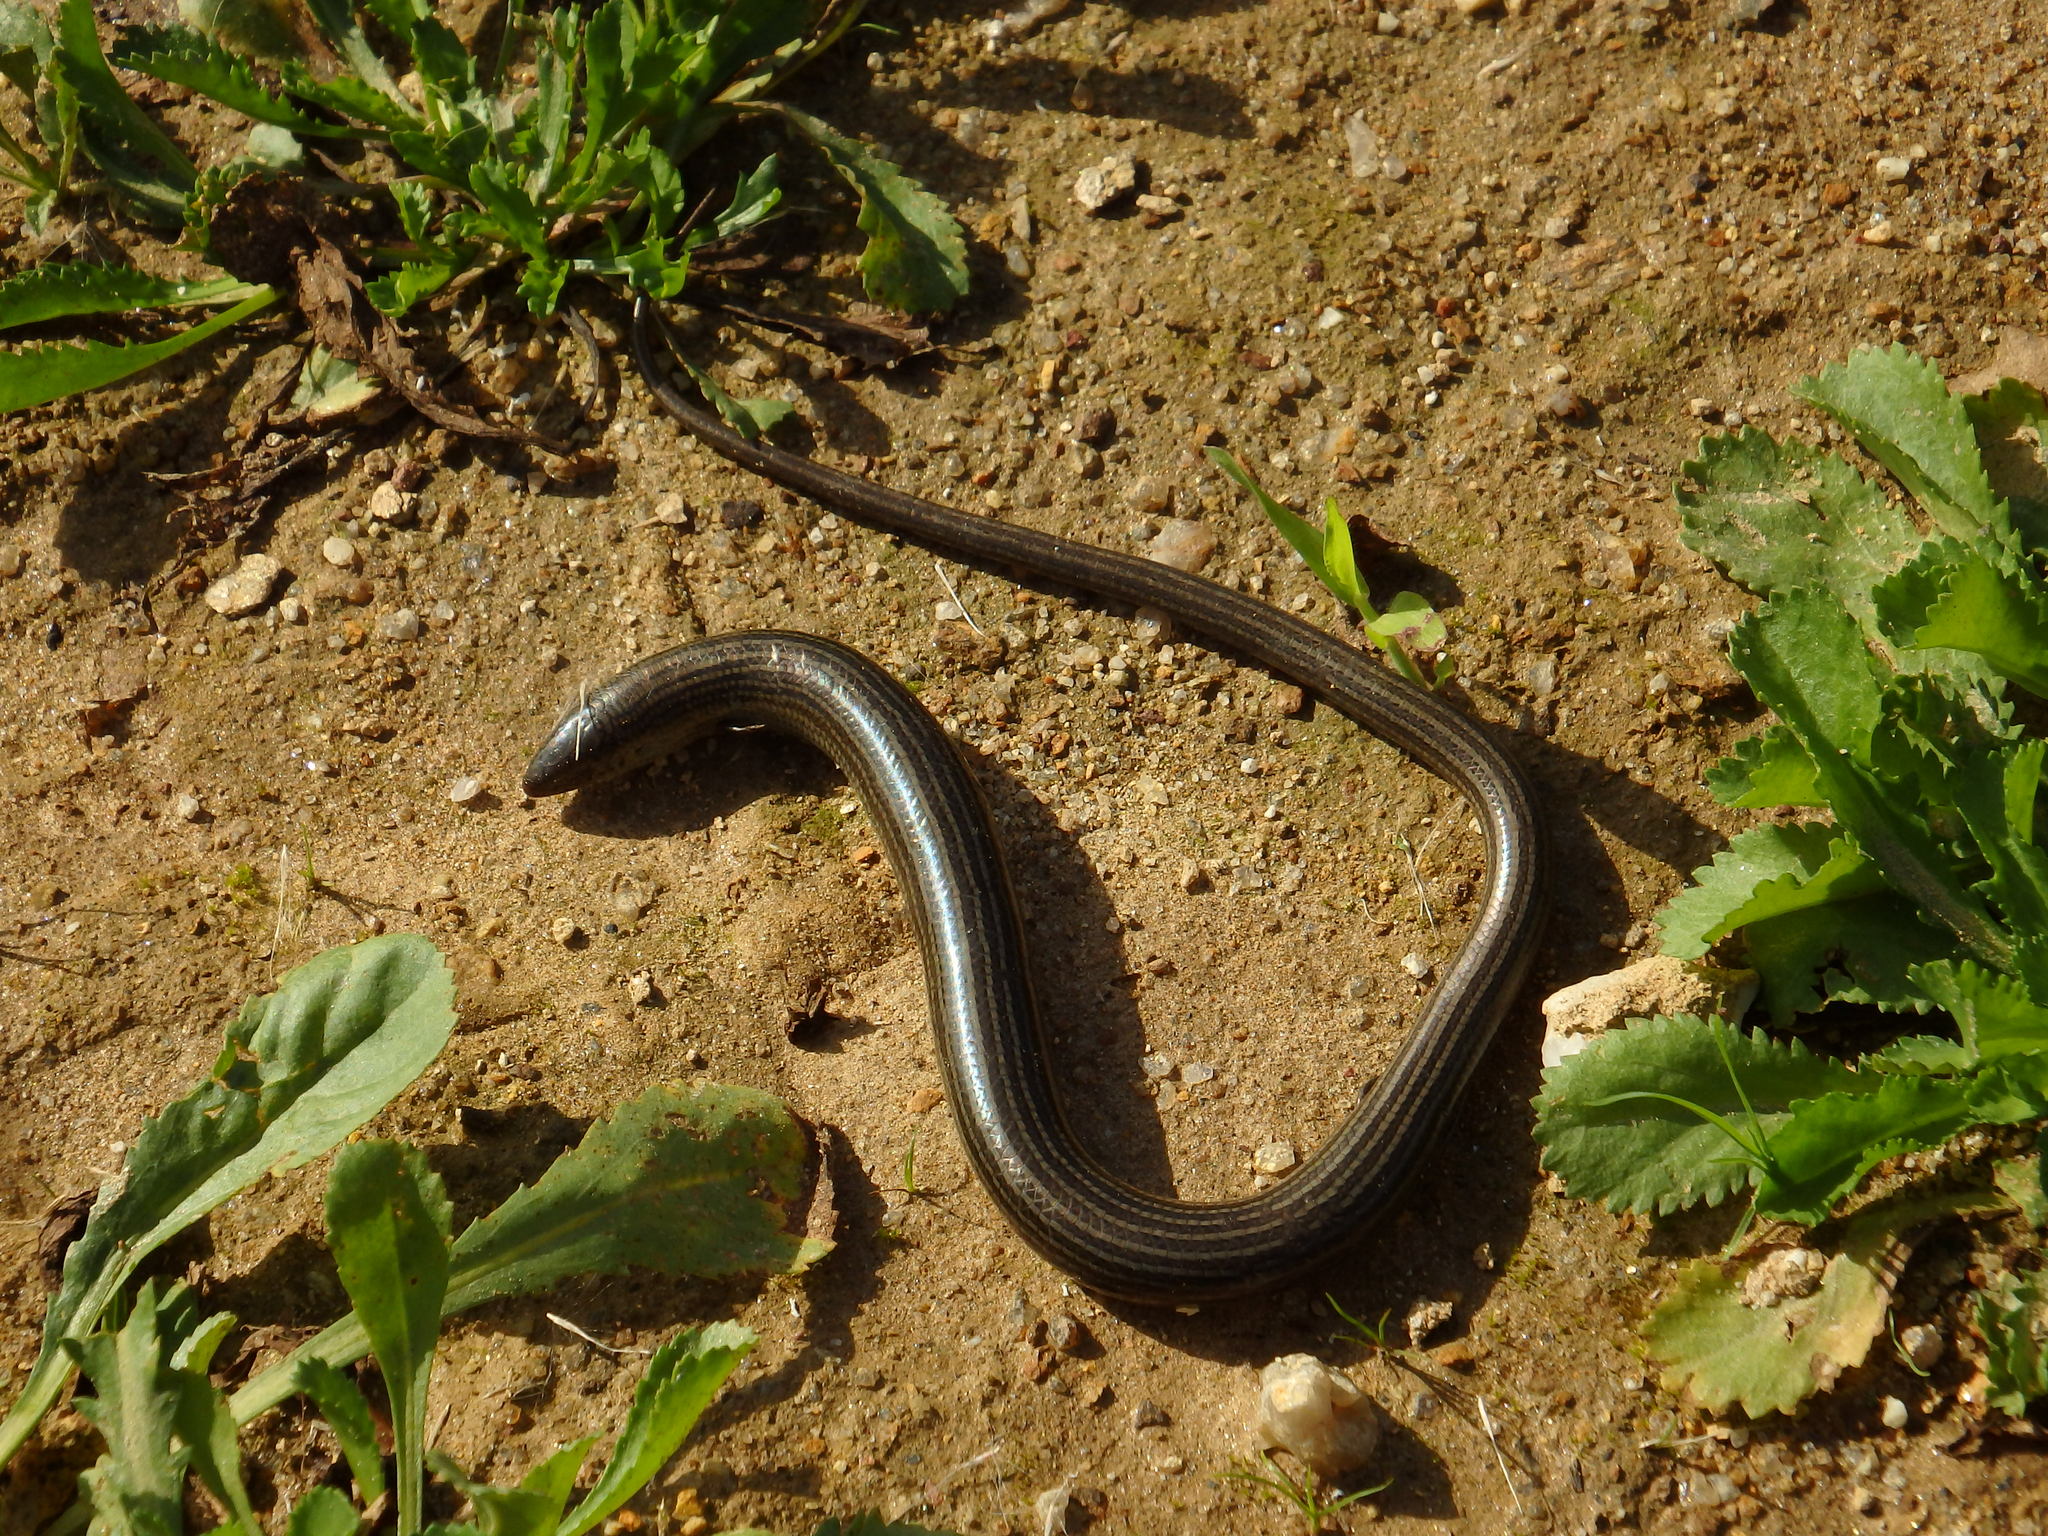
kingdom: Animalia
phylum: Chordata
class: Squamata
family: Scincidae
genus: Chalcides
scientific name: Chalcides striatus
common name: Western (or iberian) three-toed skink
